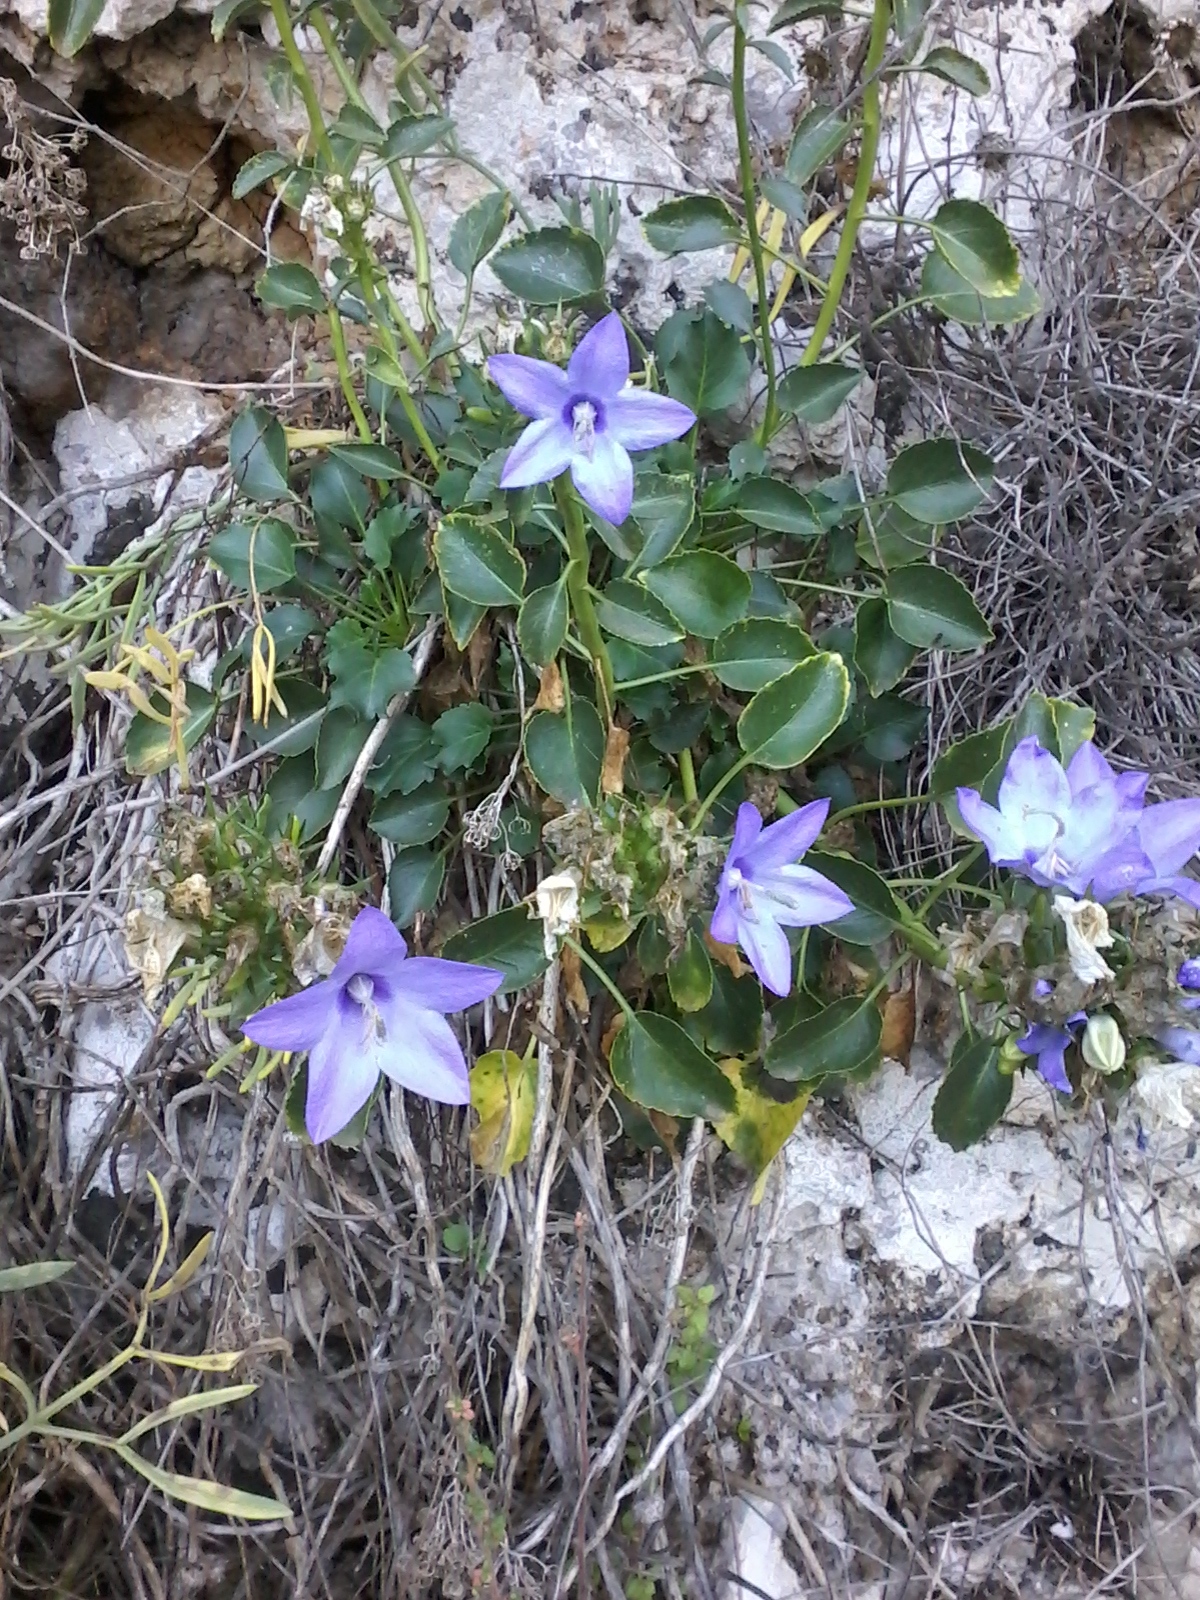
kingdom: Plantae
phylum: Tracheophyta
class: Magnoliopsida
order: Asterales
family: Campanulaceae
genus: Campanula
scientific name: Campanula versicolor
